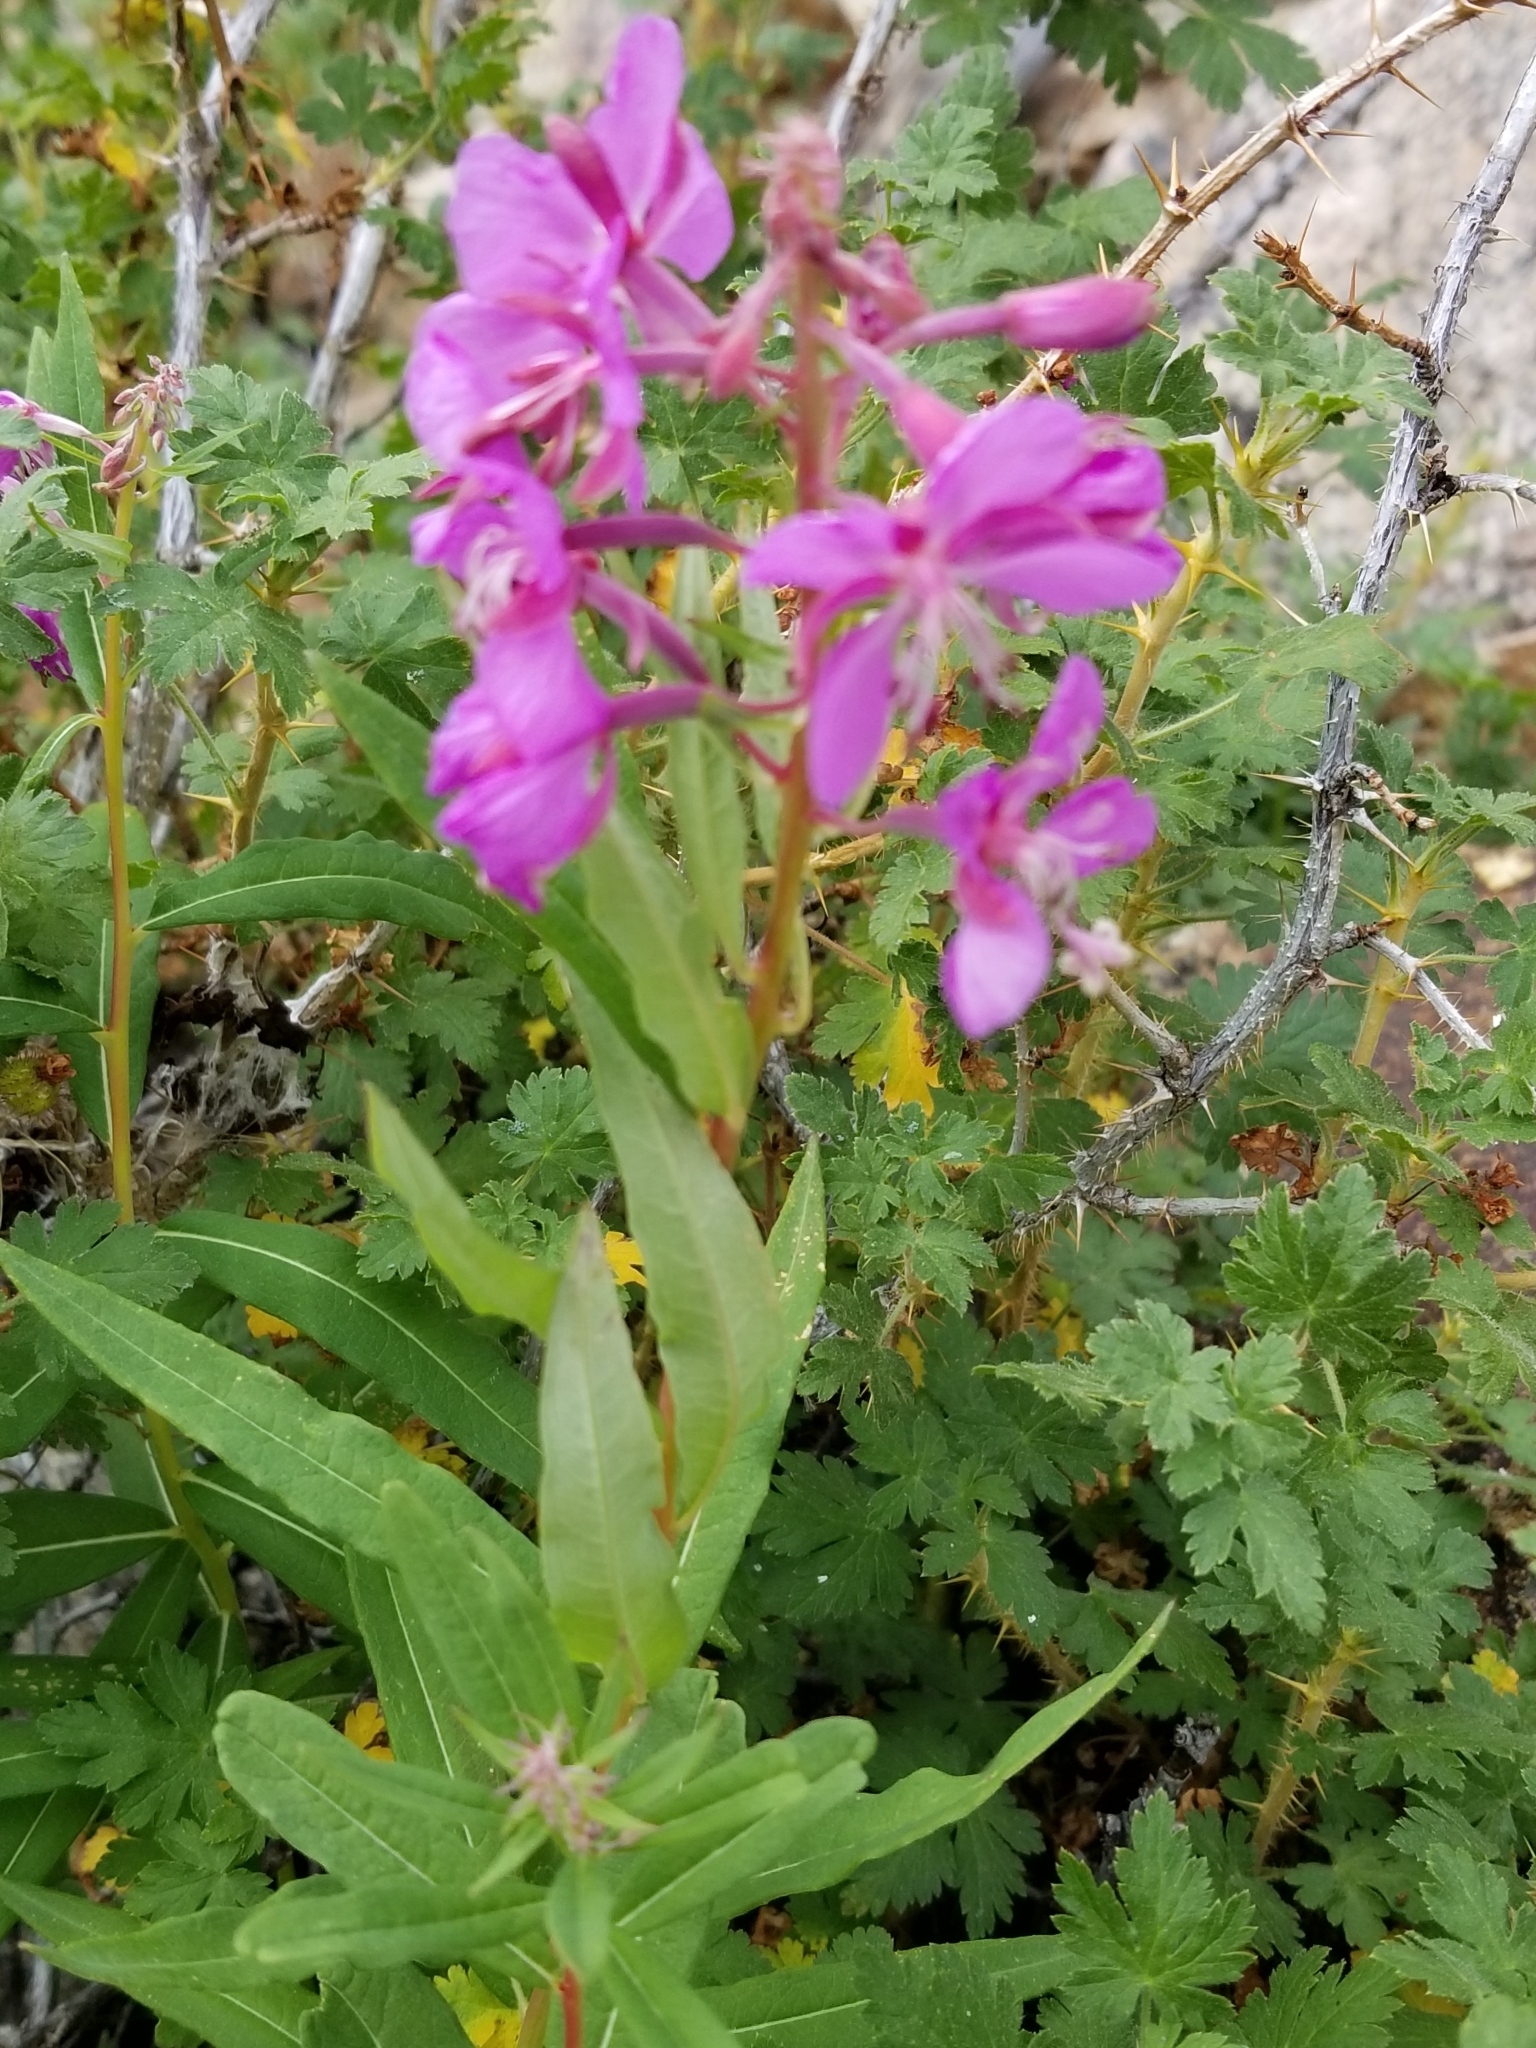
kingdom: Plantae
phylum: Tracheophyta
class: Magnoliopsida
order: Myrtales
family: Onagraceae
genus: Chamaenerion
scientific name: Chamaenerion angustifolium
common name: Fireweed
